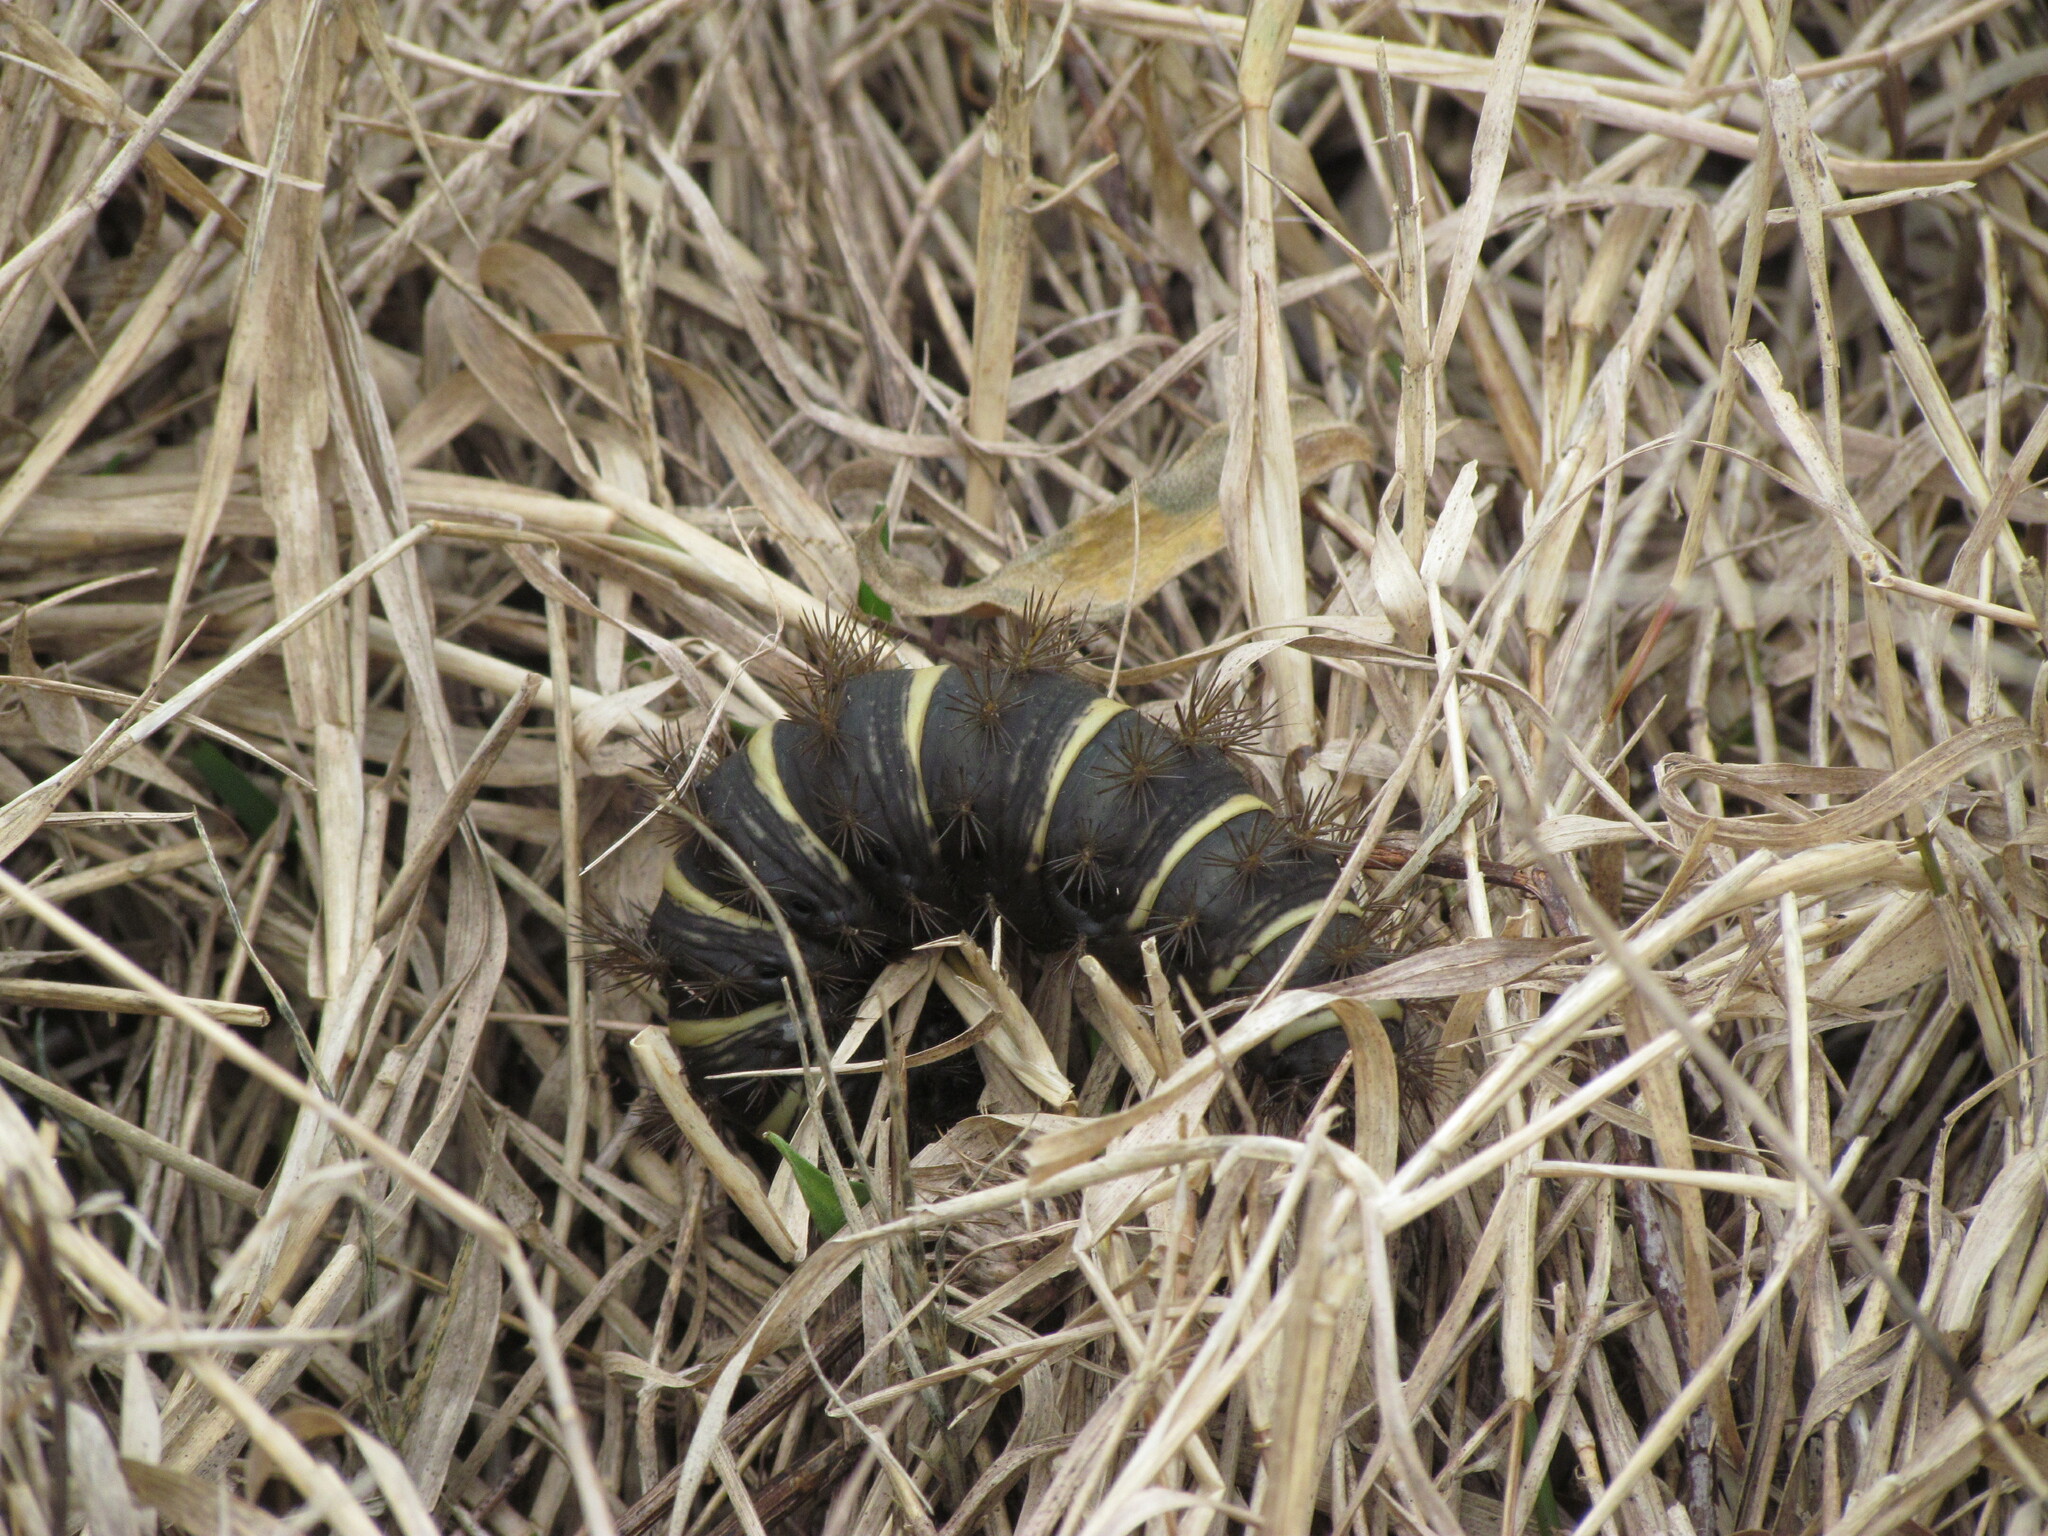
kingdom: Animalia
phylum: Arthropoda
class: Insecta
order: Lepidoptera
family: Saturniidae
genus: Eudyaria
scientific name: Eudyaria zeta
